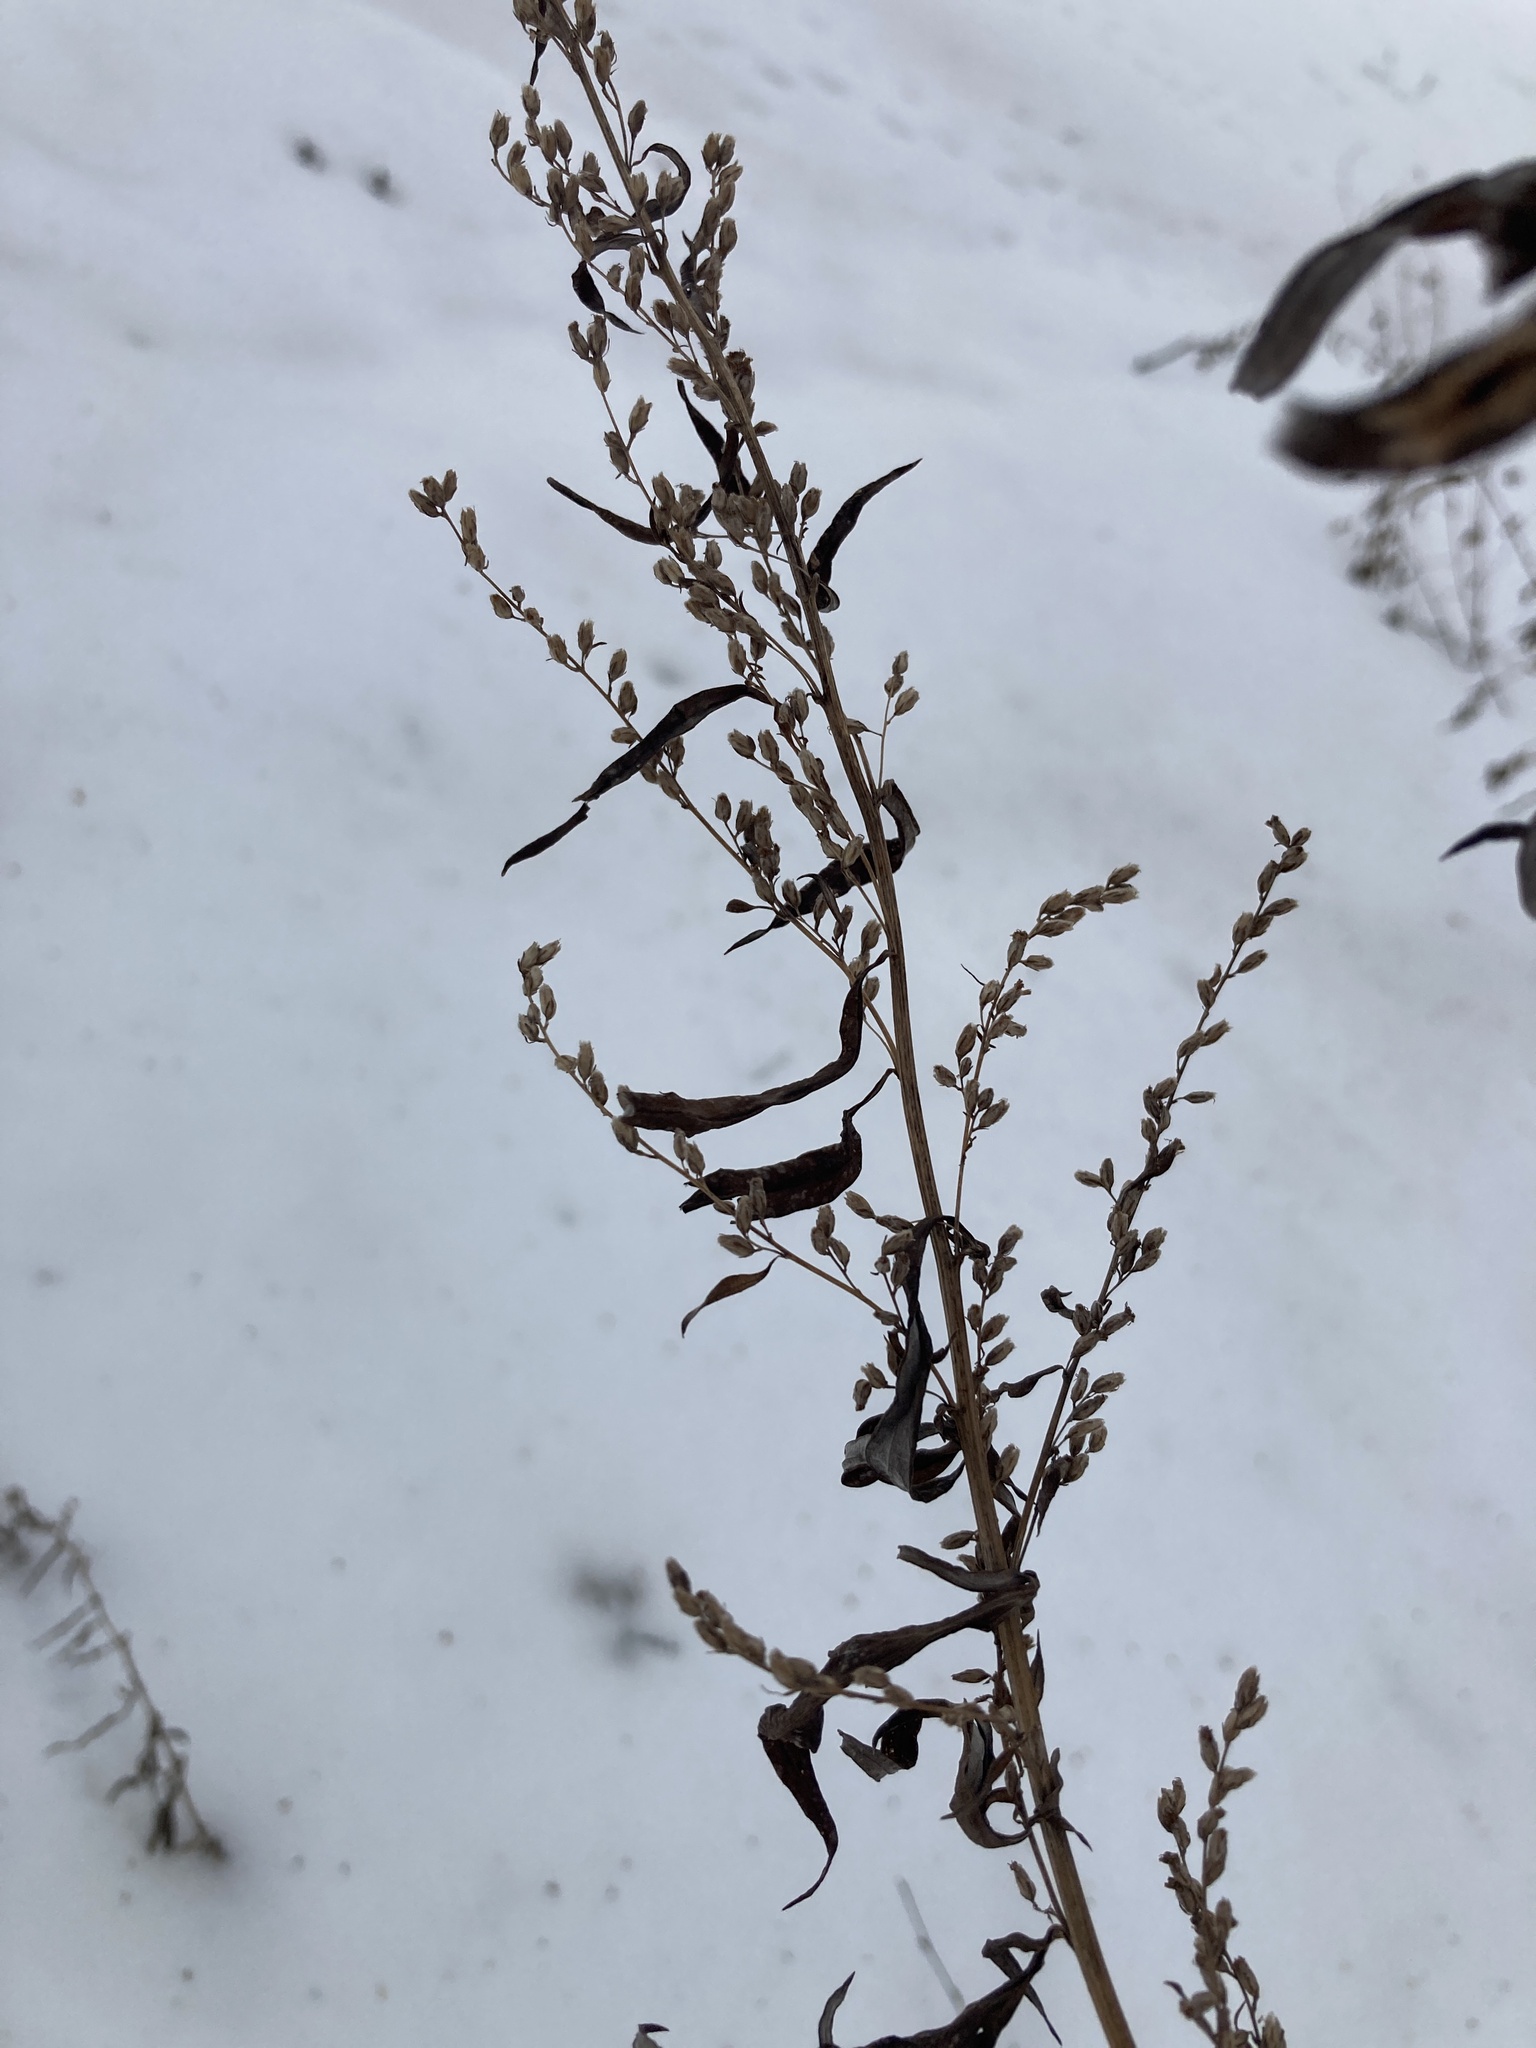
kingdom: Plantae
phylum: Tracheophyta
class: Magnoliopsida
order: Asterales
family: Asteraceae
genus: Artemisia
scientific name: Artemisia vulgaris
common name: Mugwort
